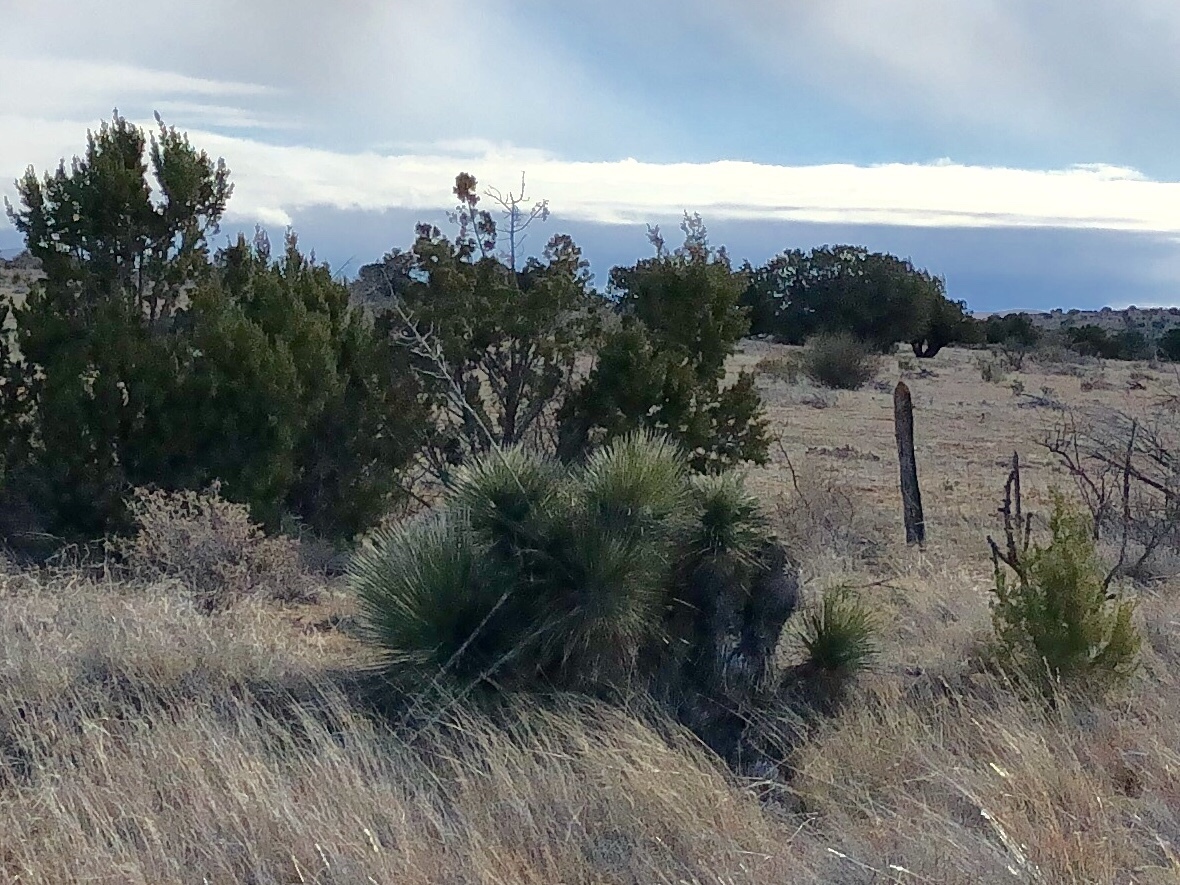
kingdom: Plantae
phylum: Tracheophyta
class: Liliopsida
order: Asparagales
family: Asparagaceae
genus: Yucca
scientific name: Yucca elata
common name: Palmella
